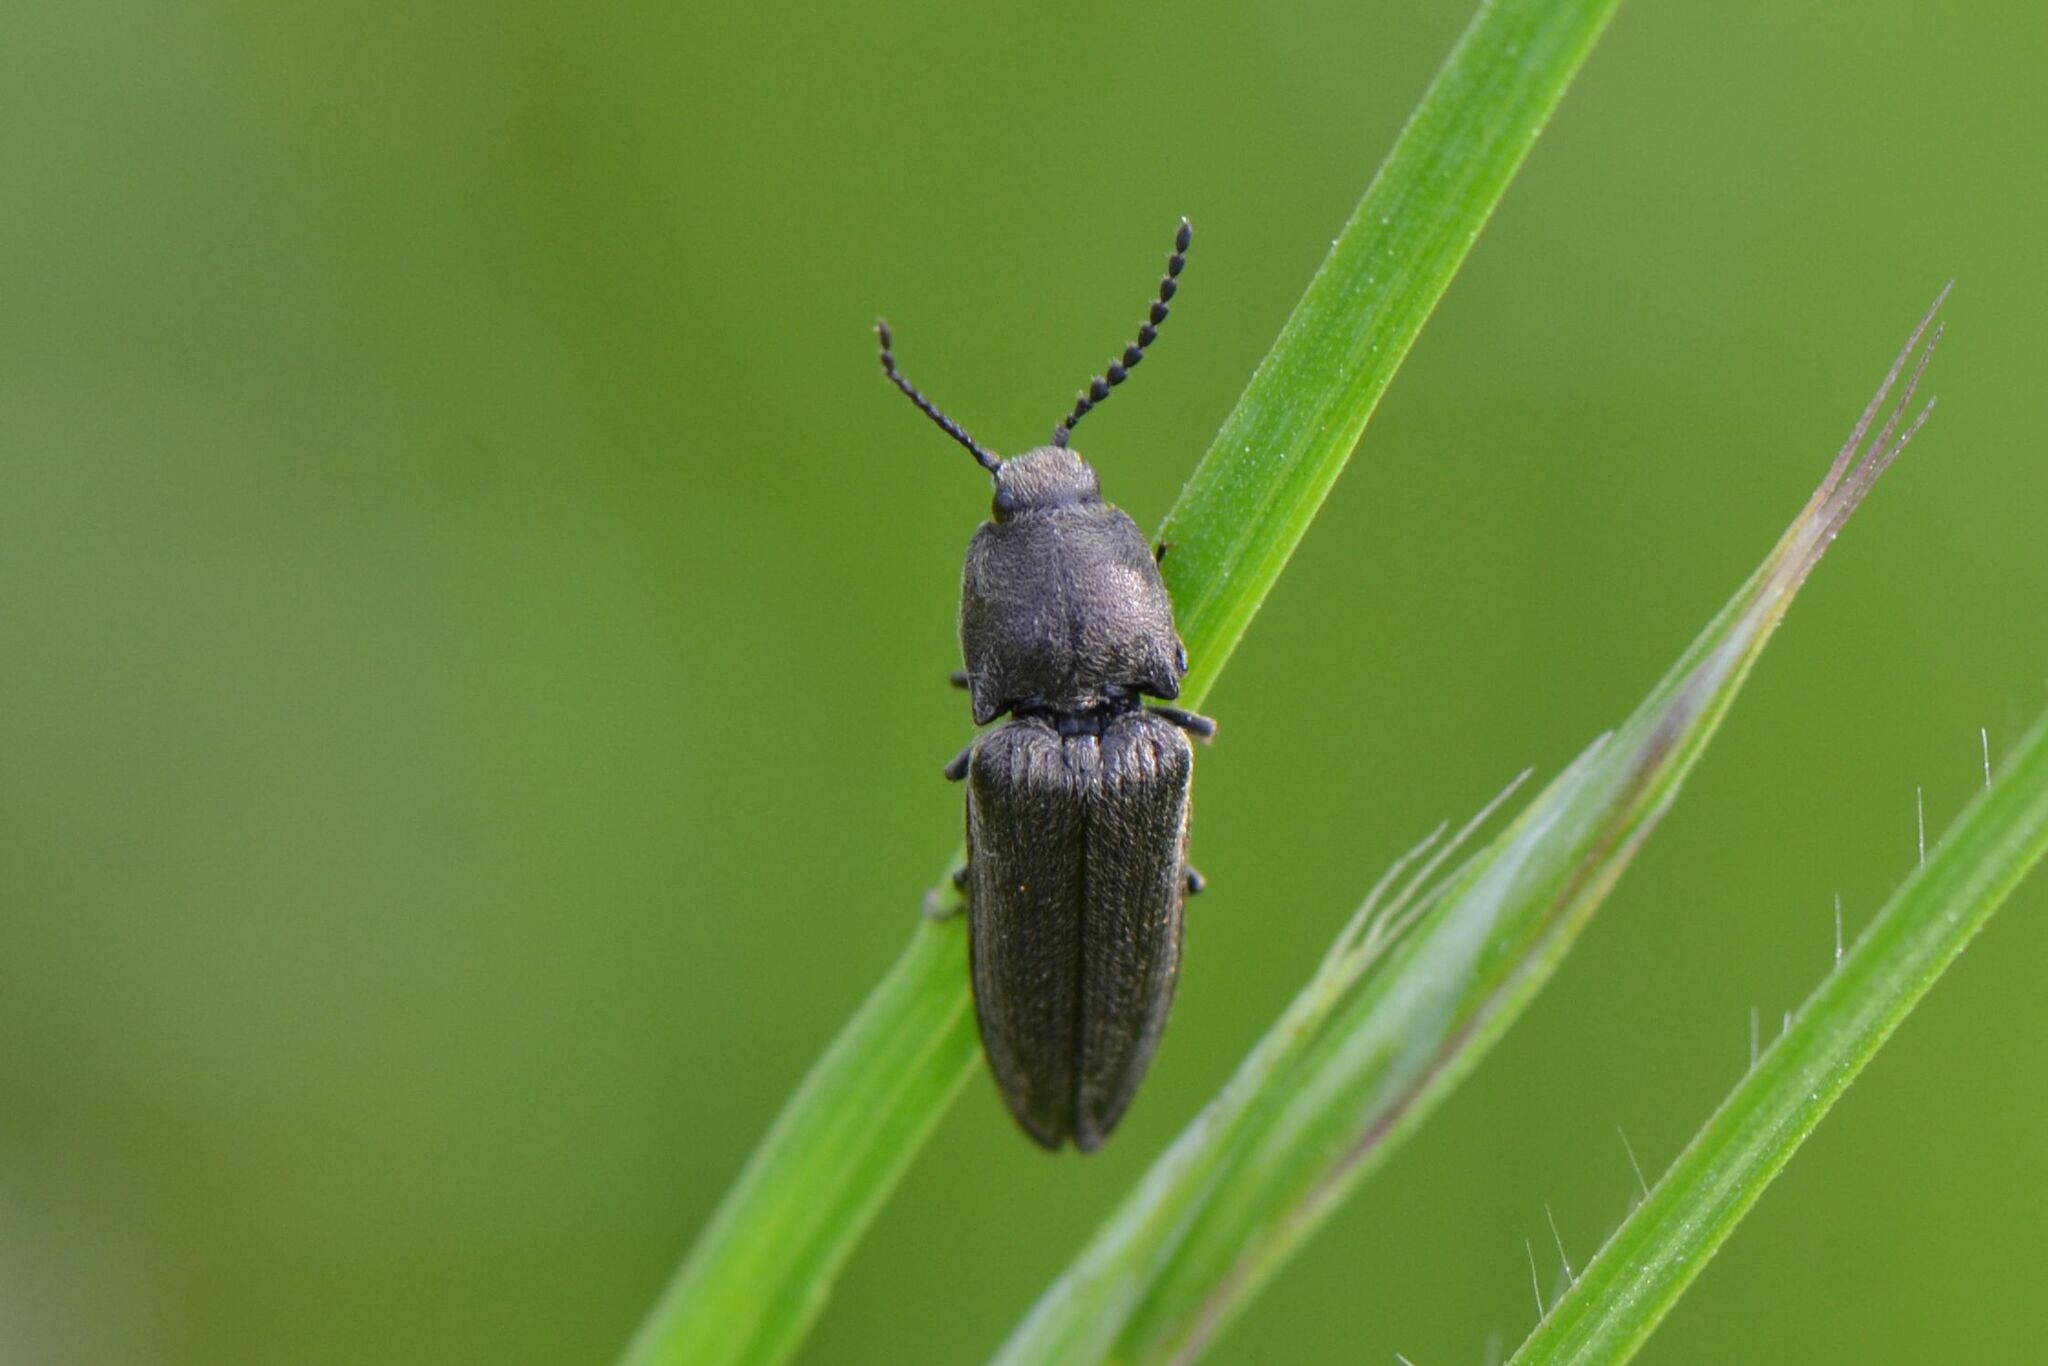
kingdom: Animalia
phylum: Arthropoda
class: Insecta
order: Coleoptera
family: Elateridae
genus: Cidnopus
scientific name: Cidnopus pilosus
